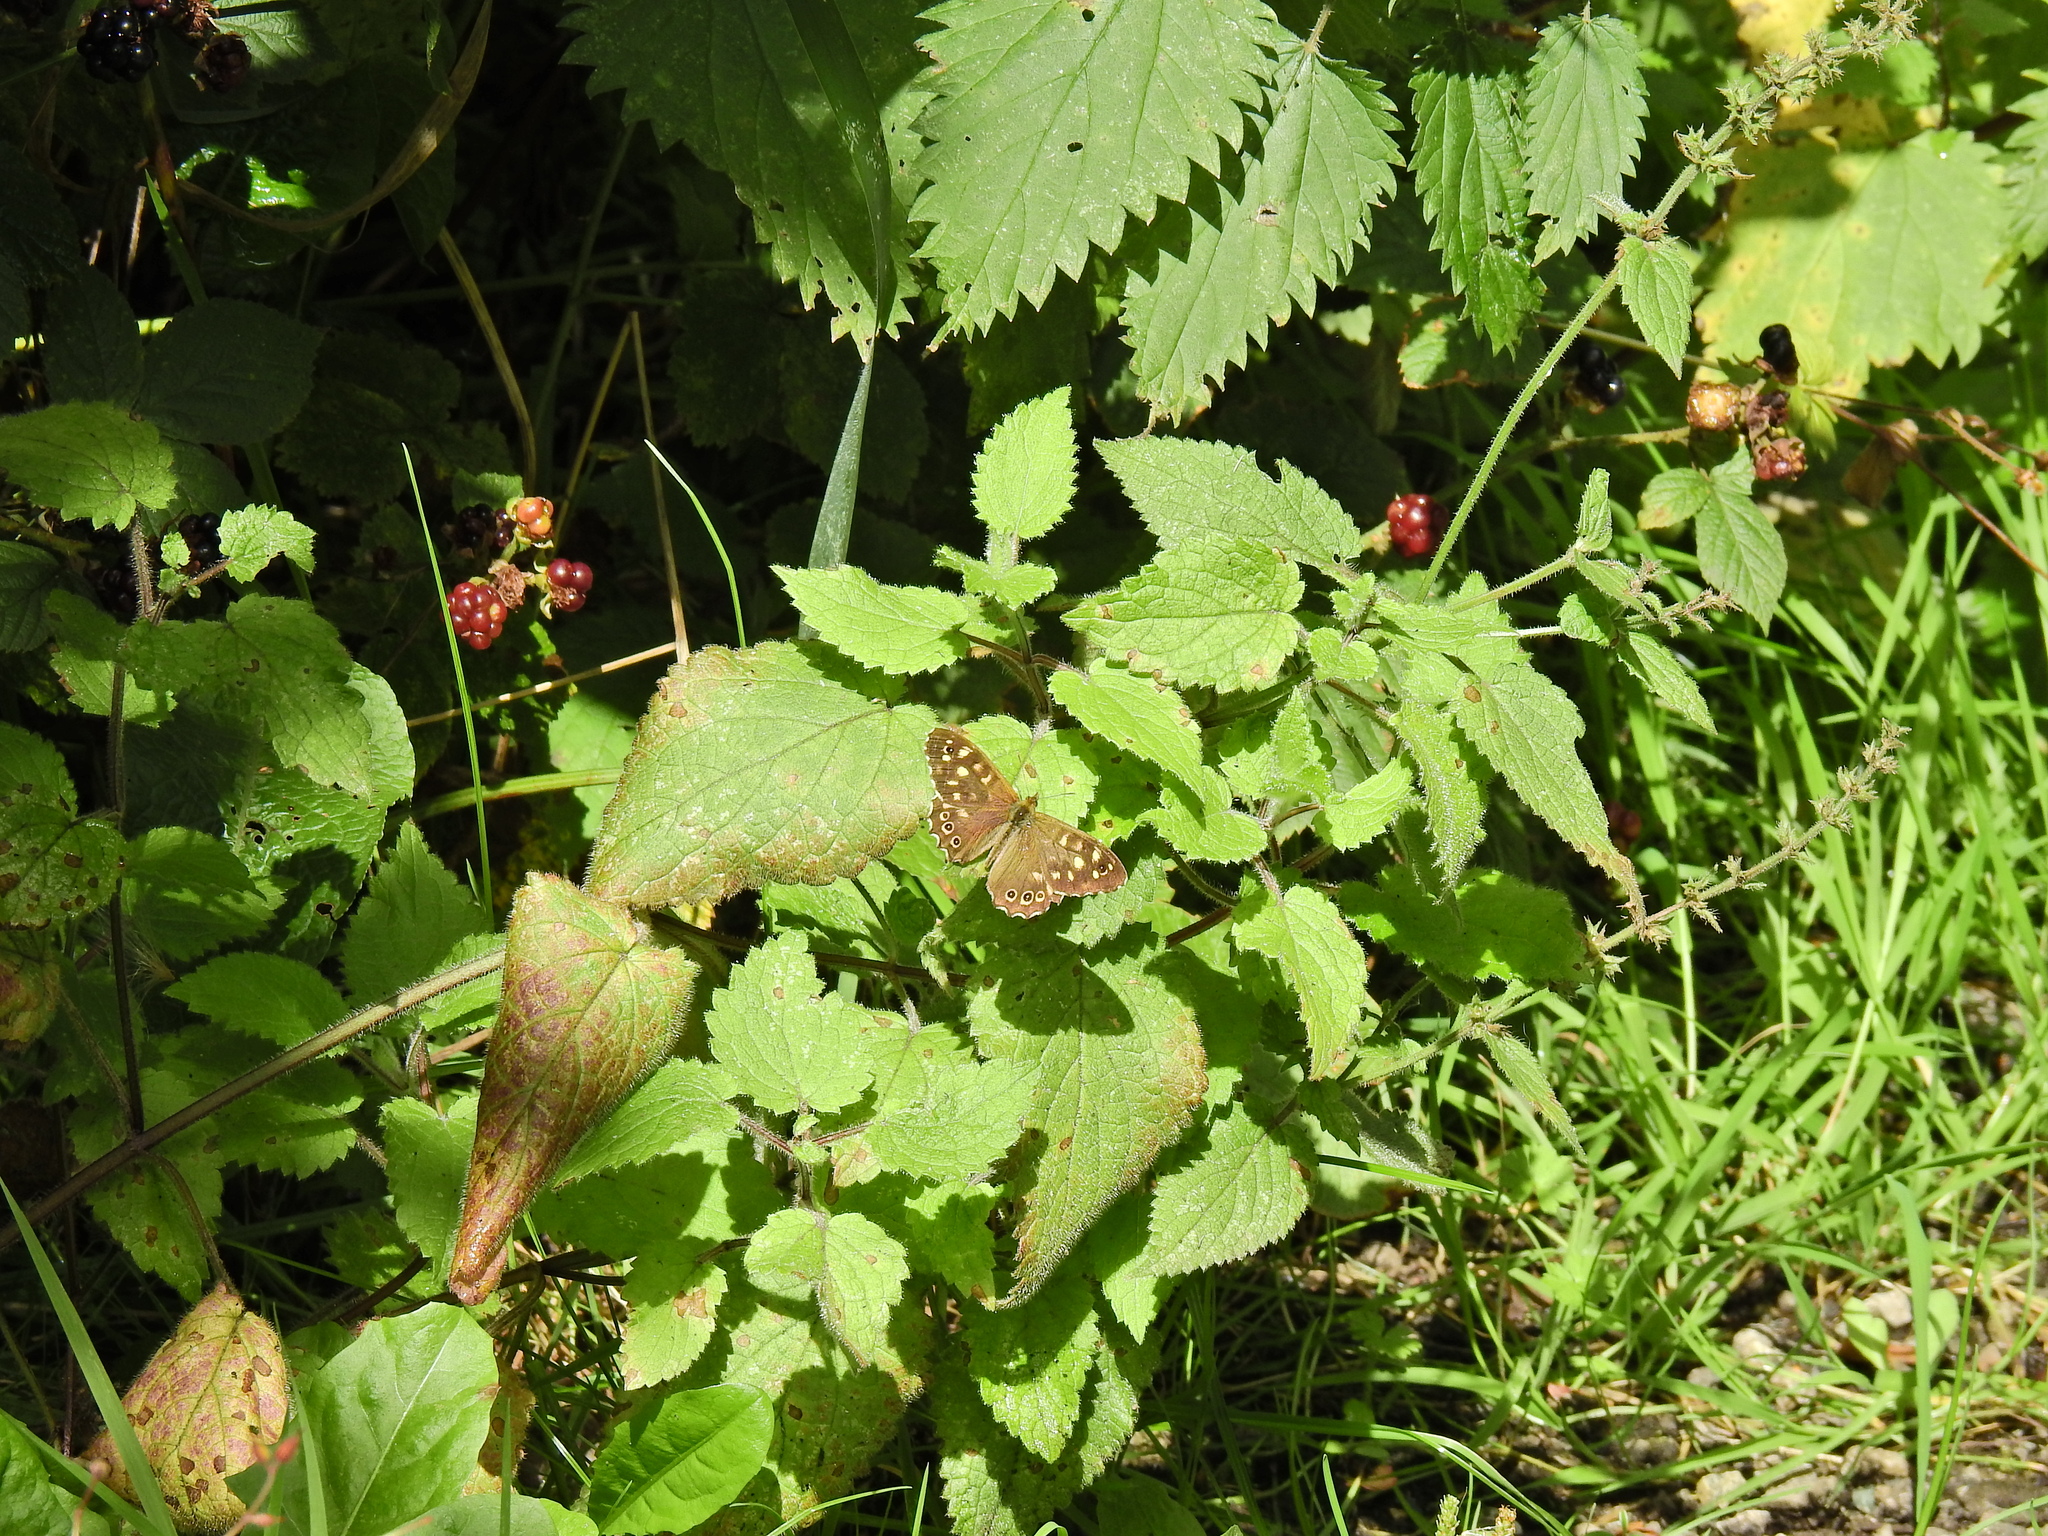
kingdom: Animalia
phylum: Arthropoda
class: Insecta
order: Lepidoptera
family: Nymphalidae
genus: Pararge
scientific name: Pararge aegeria
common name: Speckled wood
